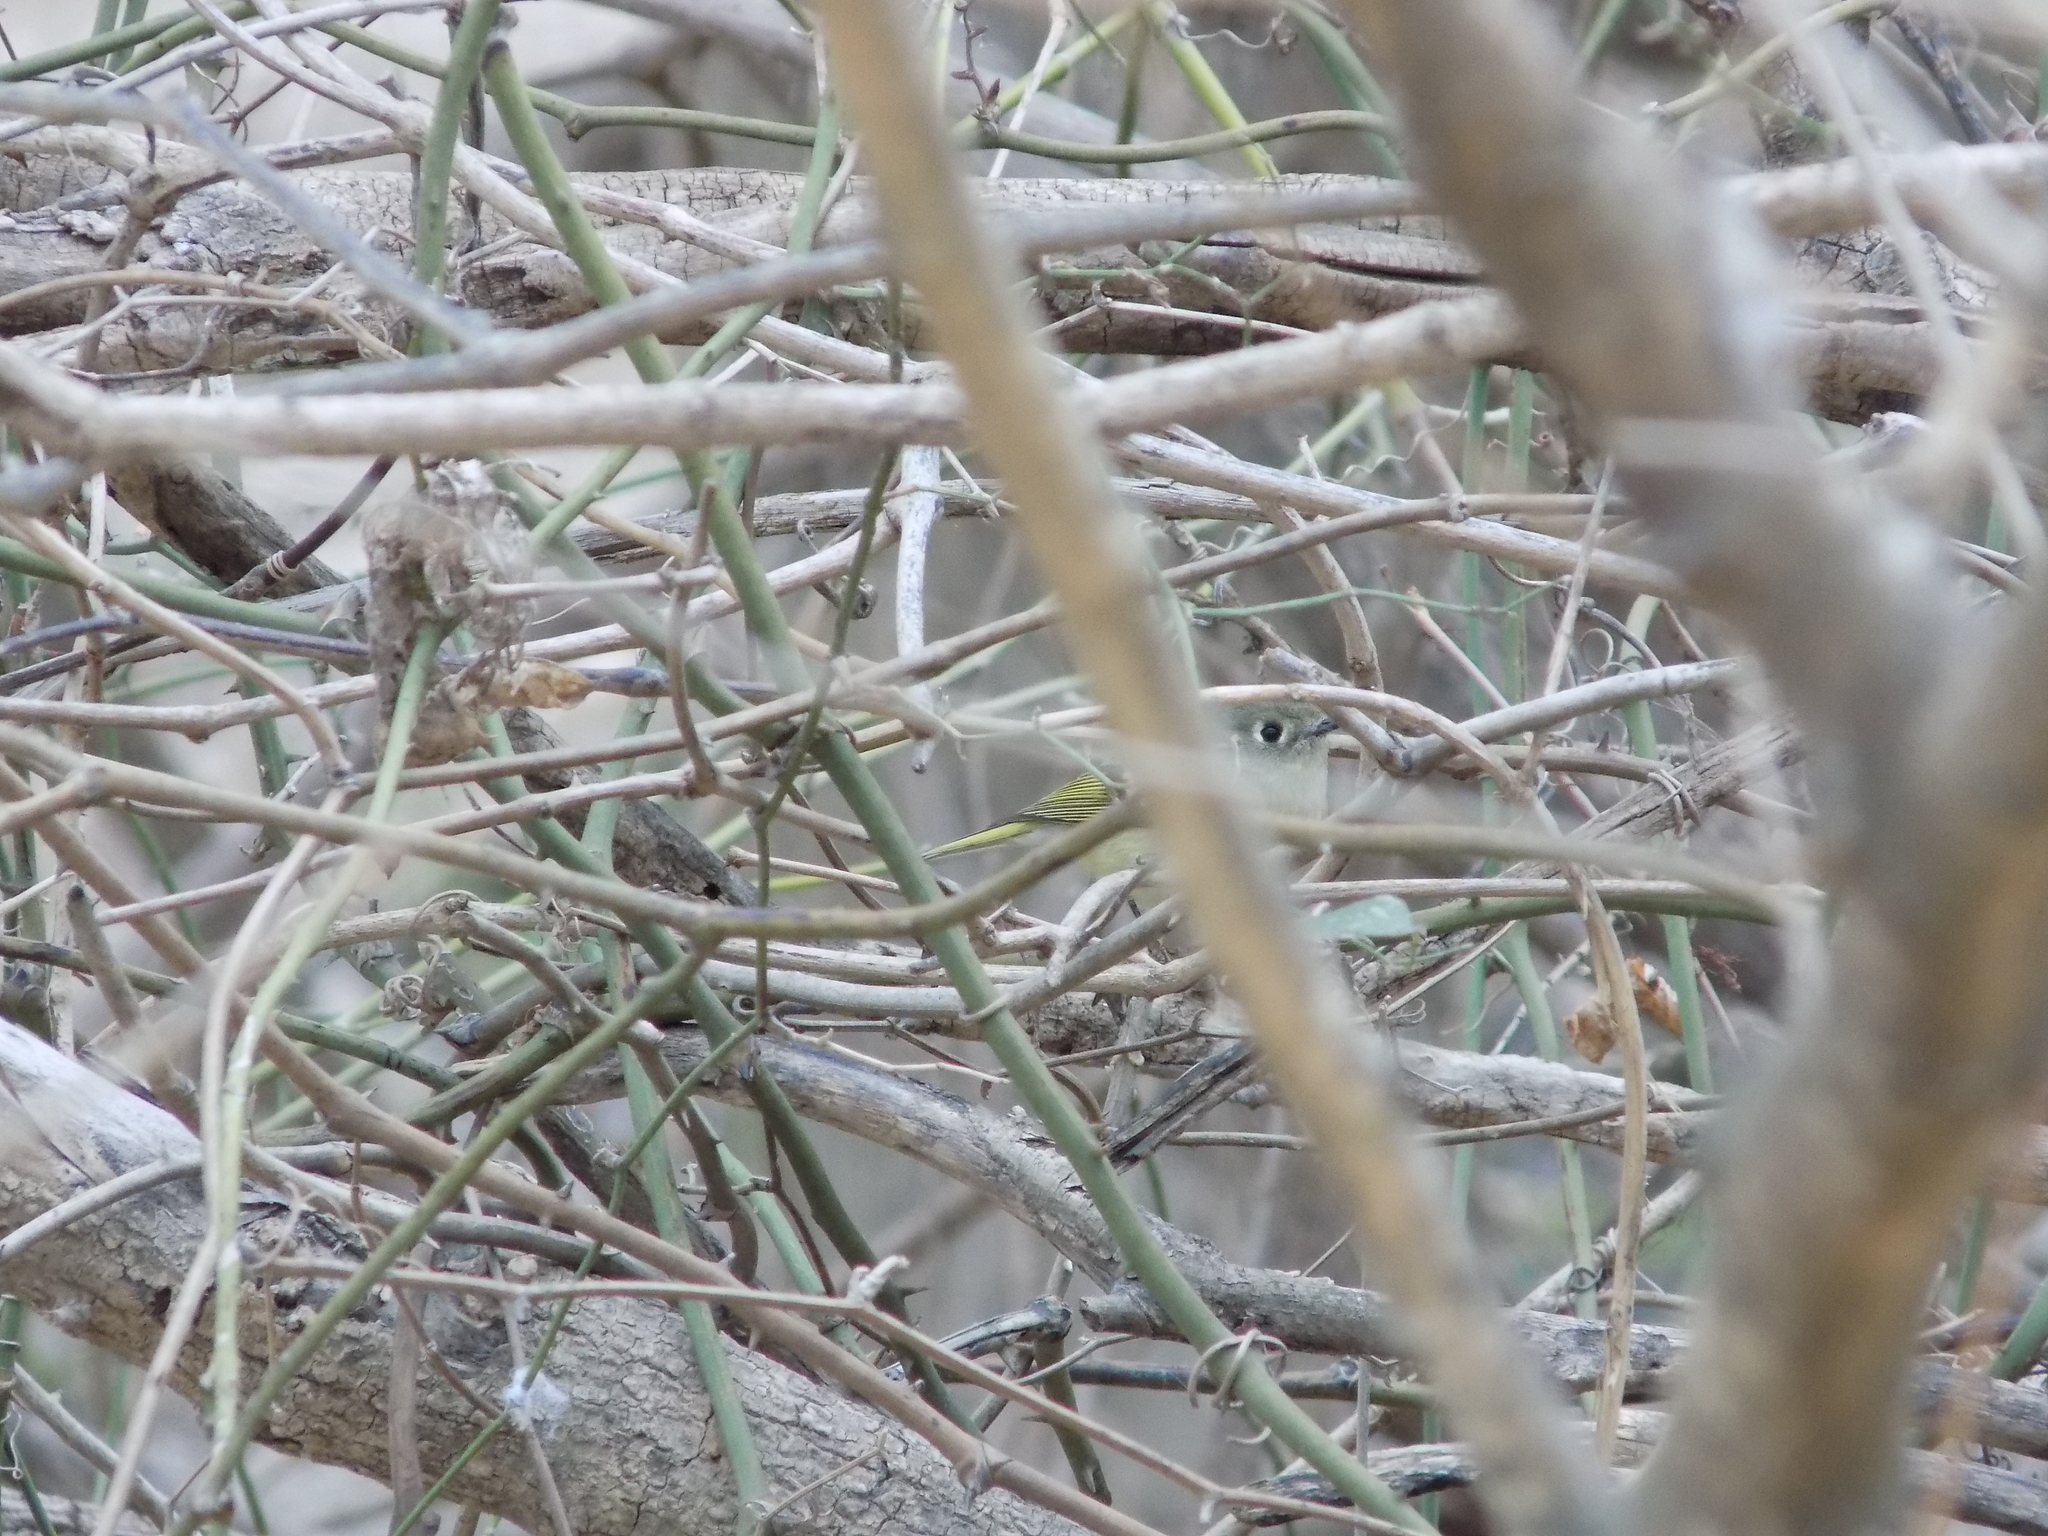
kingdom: Animalia
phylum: Chordata
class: Aves
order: Passeriformes
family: Regulidae
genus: Regulus
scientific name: Regulus calendula
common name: Ruby-crowned kinglet
